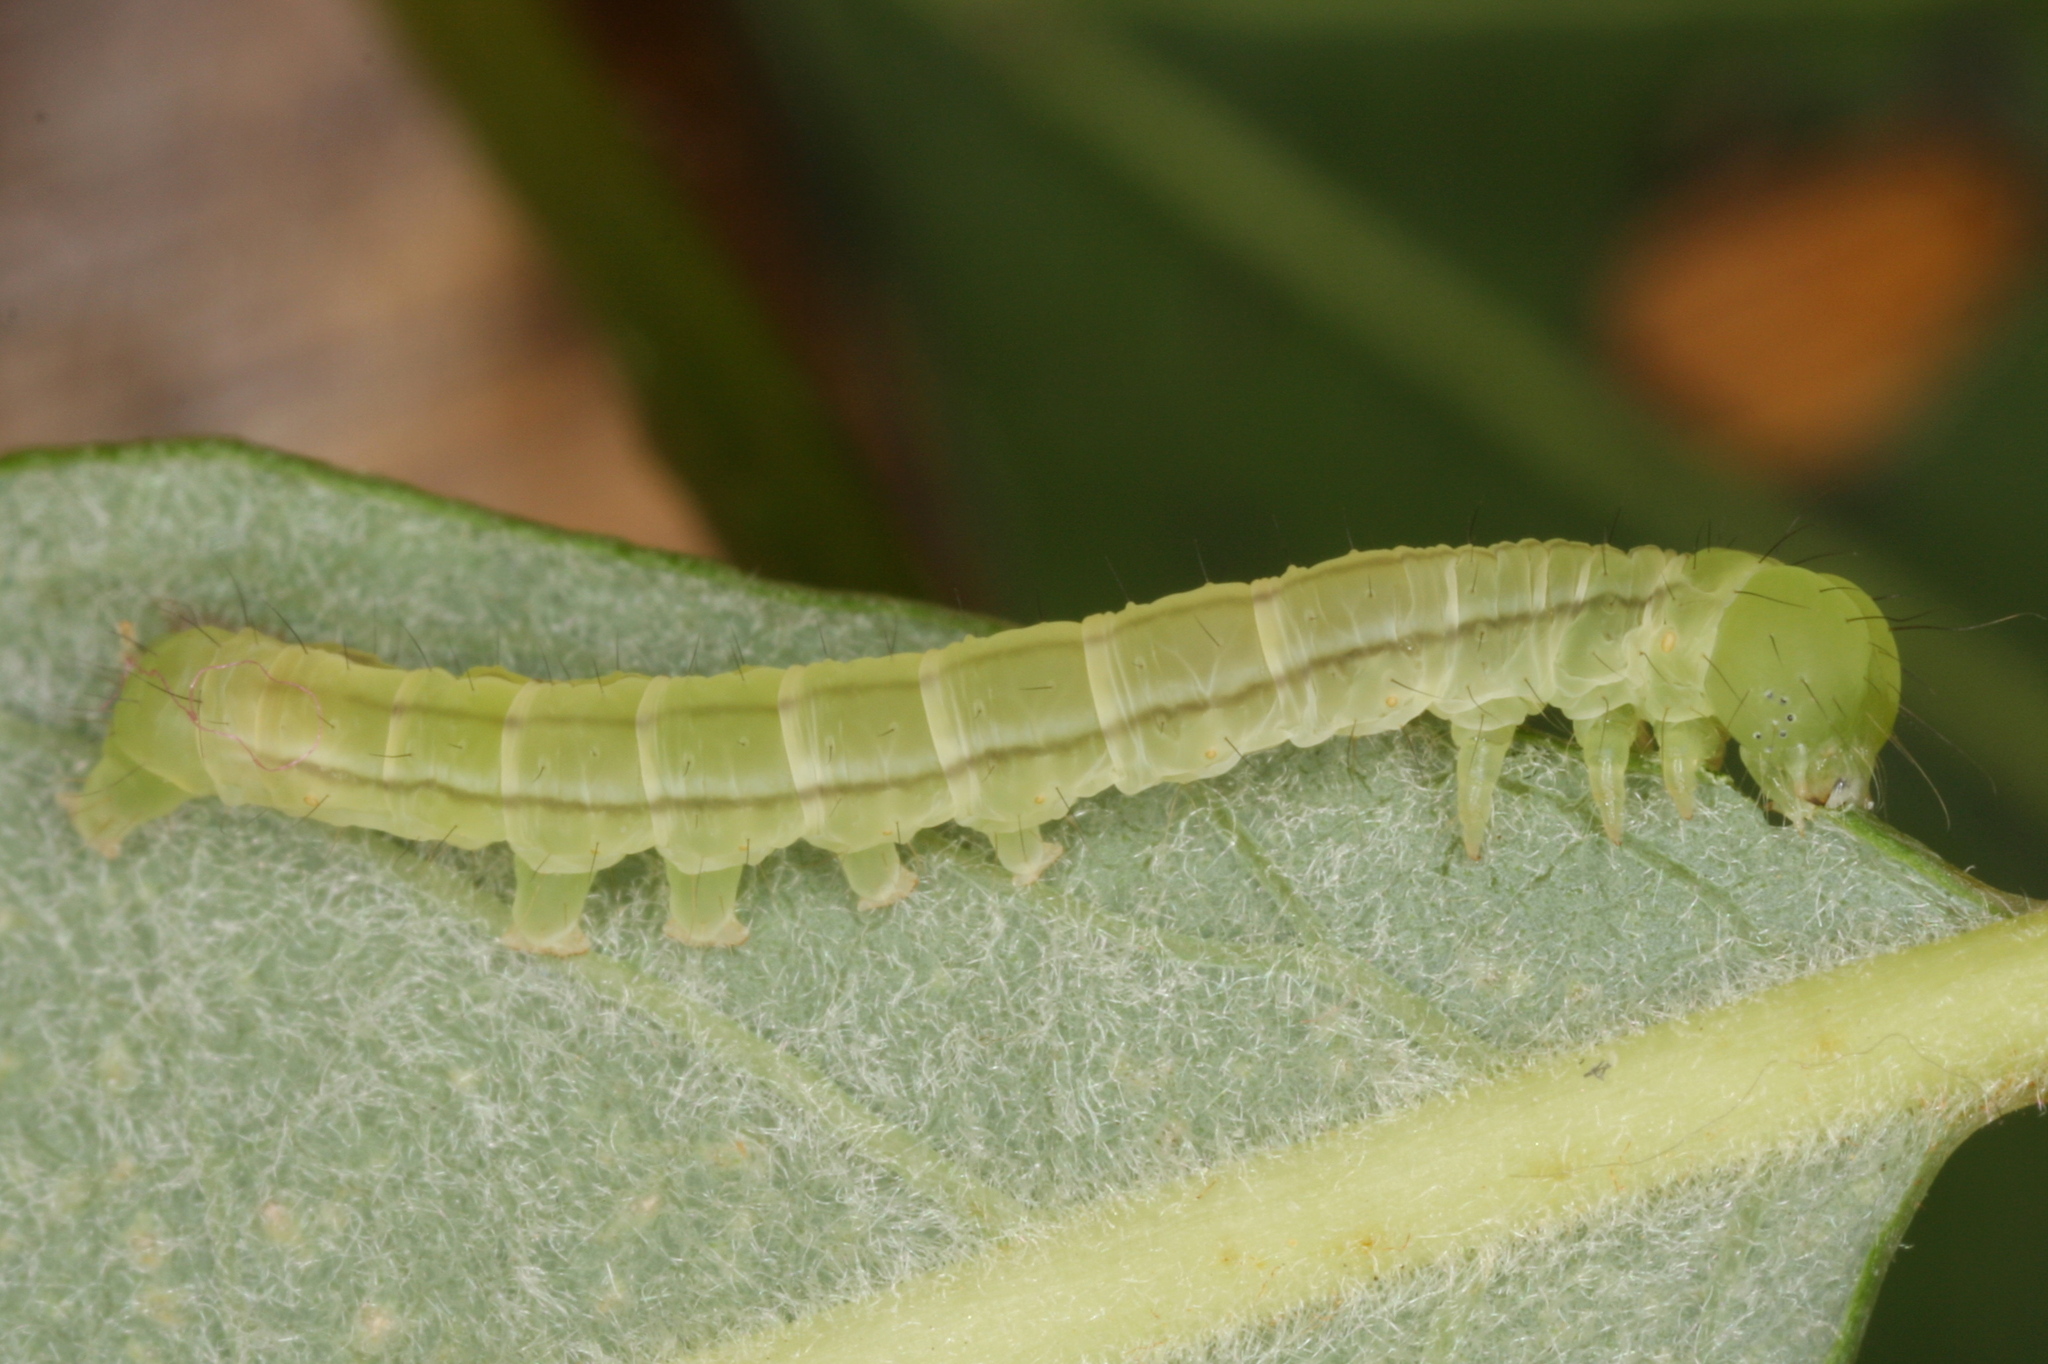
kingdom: Animalia
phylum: Arthropoda
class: Insecta
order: Lepidoptera
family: Erebidae
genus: Scoliopteryx
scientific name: Scoliopteryx libatrix
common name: Herald
